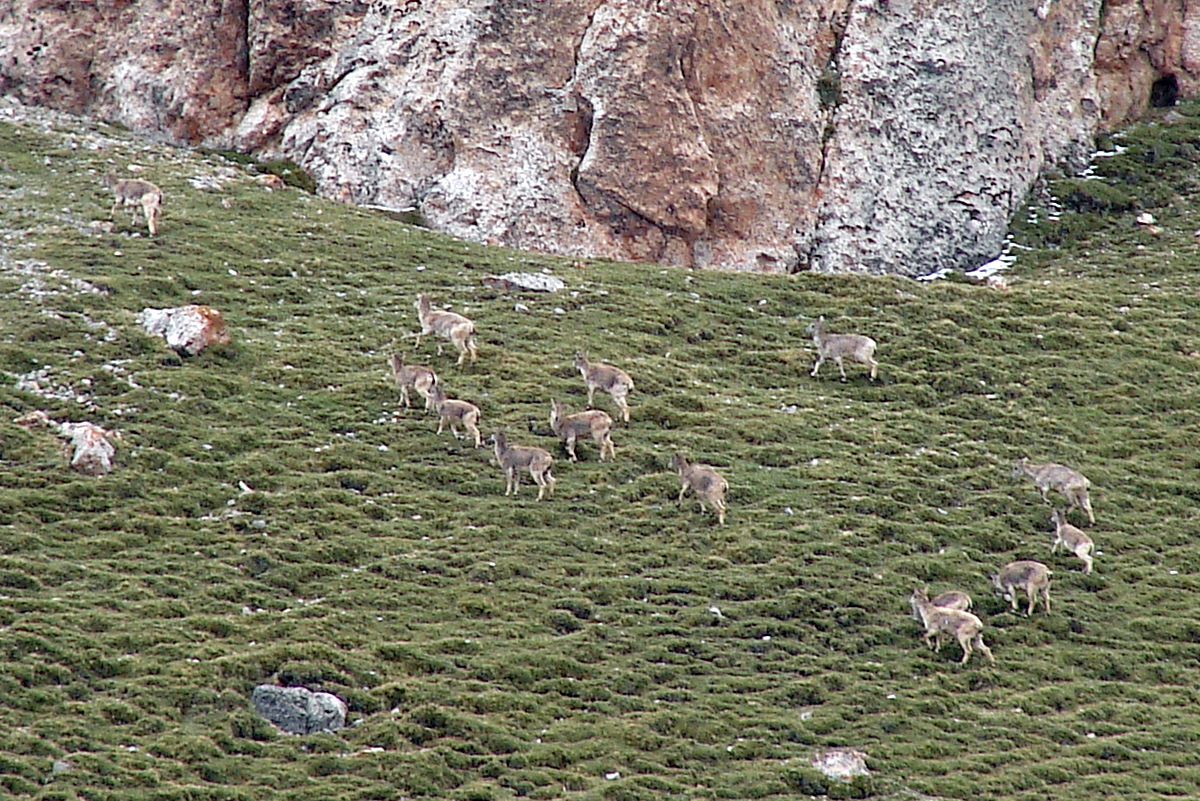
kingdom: Animalia
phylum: Chordata
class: Mammalia
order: Artiodactyla
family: Bovidae
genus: Pseudois
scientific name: Pseudois nayaur
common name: Bharal
